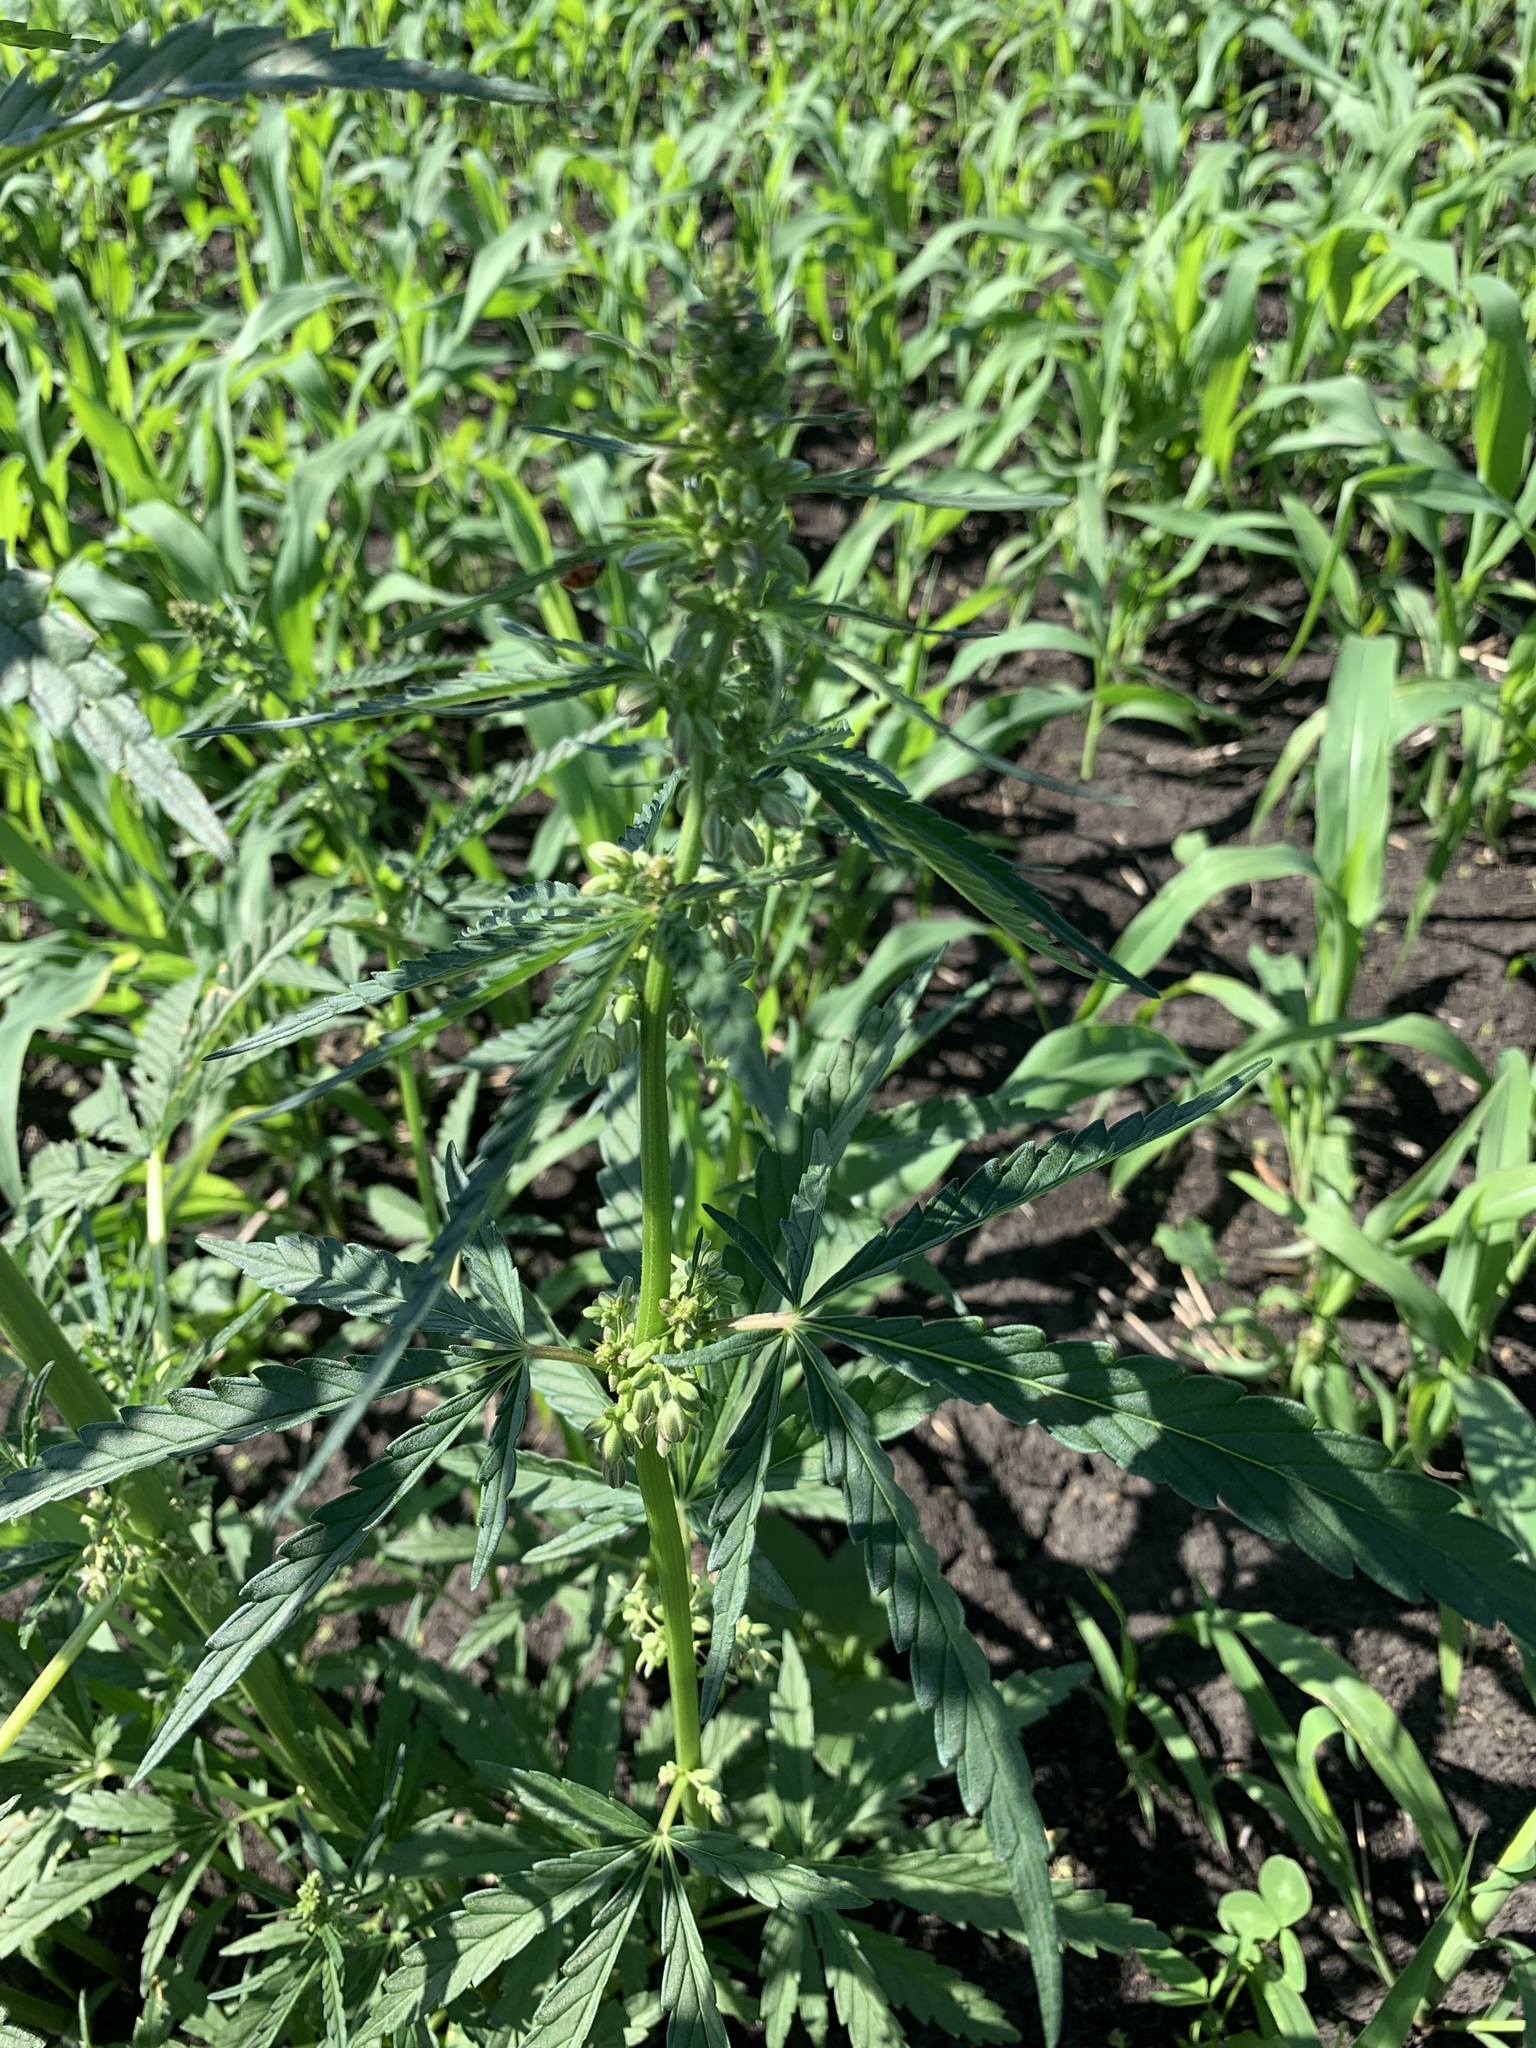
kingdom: Plantae
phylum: Tracheophyta
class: Magnoliopsida
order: Rosales
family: Cannabaceae
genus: Cannabis
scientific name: Cannabis sativa
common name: Hemp
